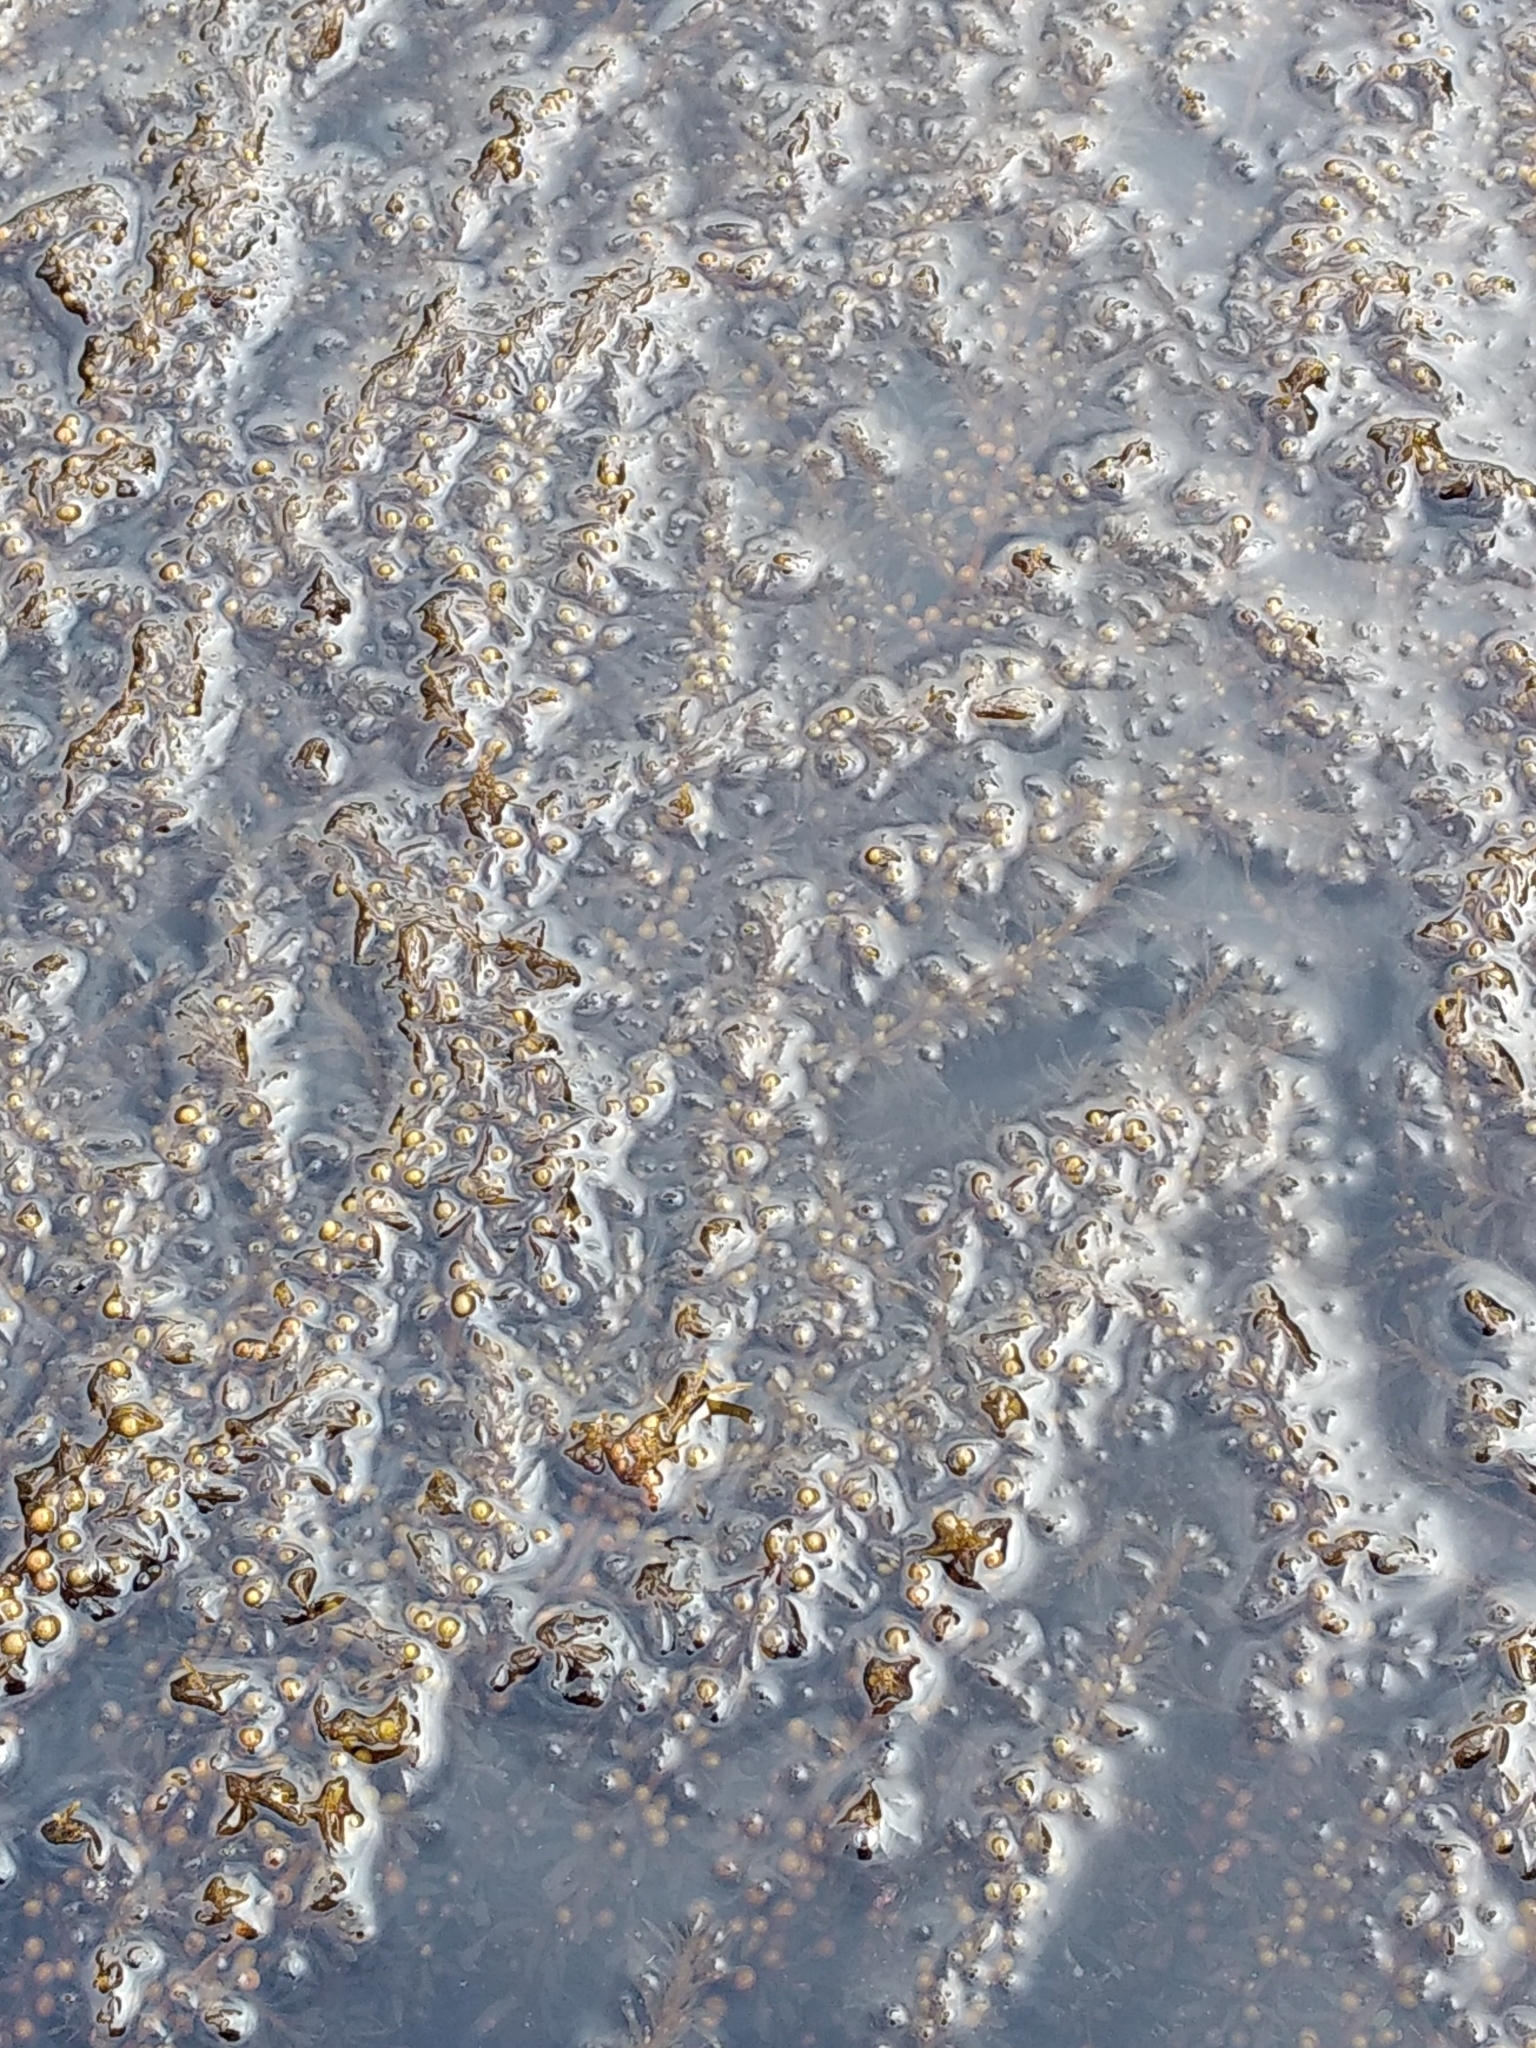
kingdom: Chromista
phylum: Ochrophyta
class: Phaeophyceae
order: Fucales
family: Sargassaceae
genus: Sargassum
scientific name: Sargassum muticum
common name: Japweed
